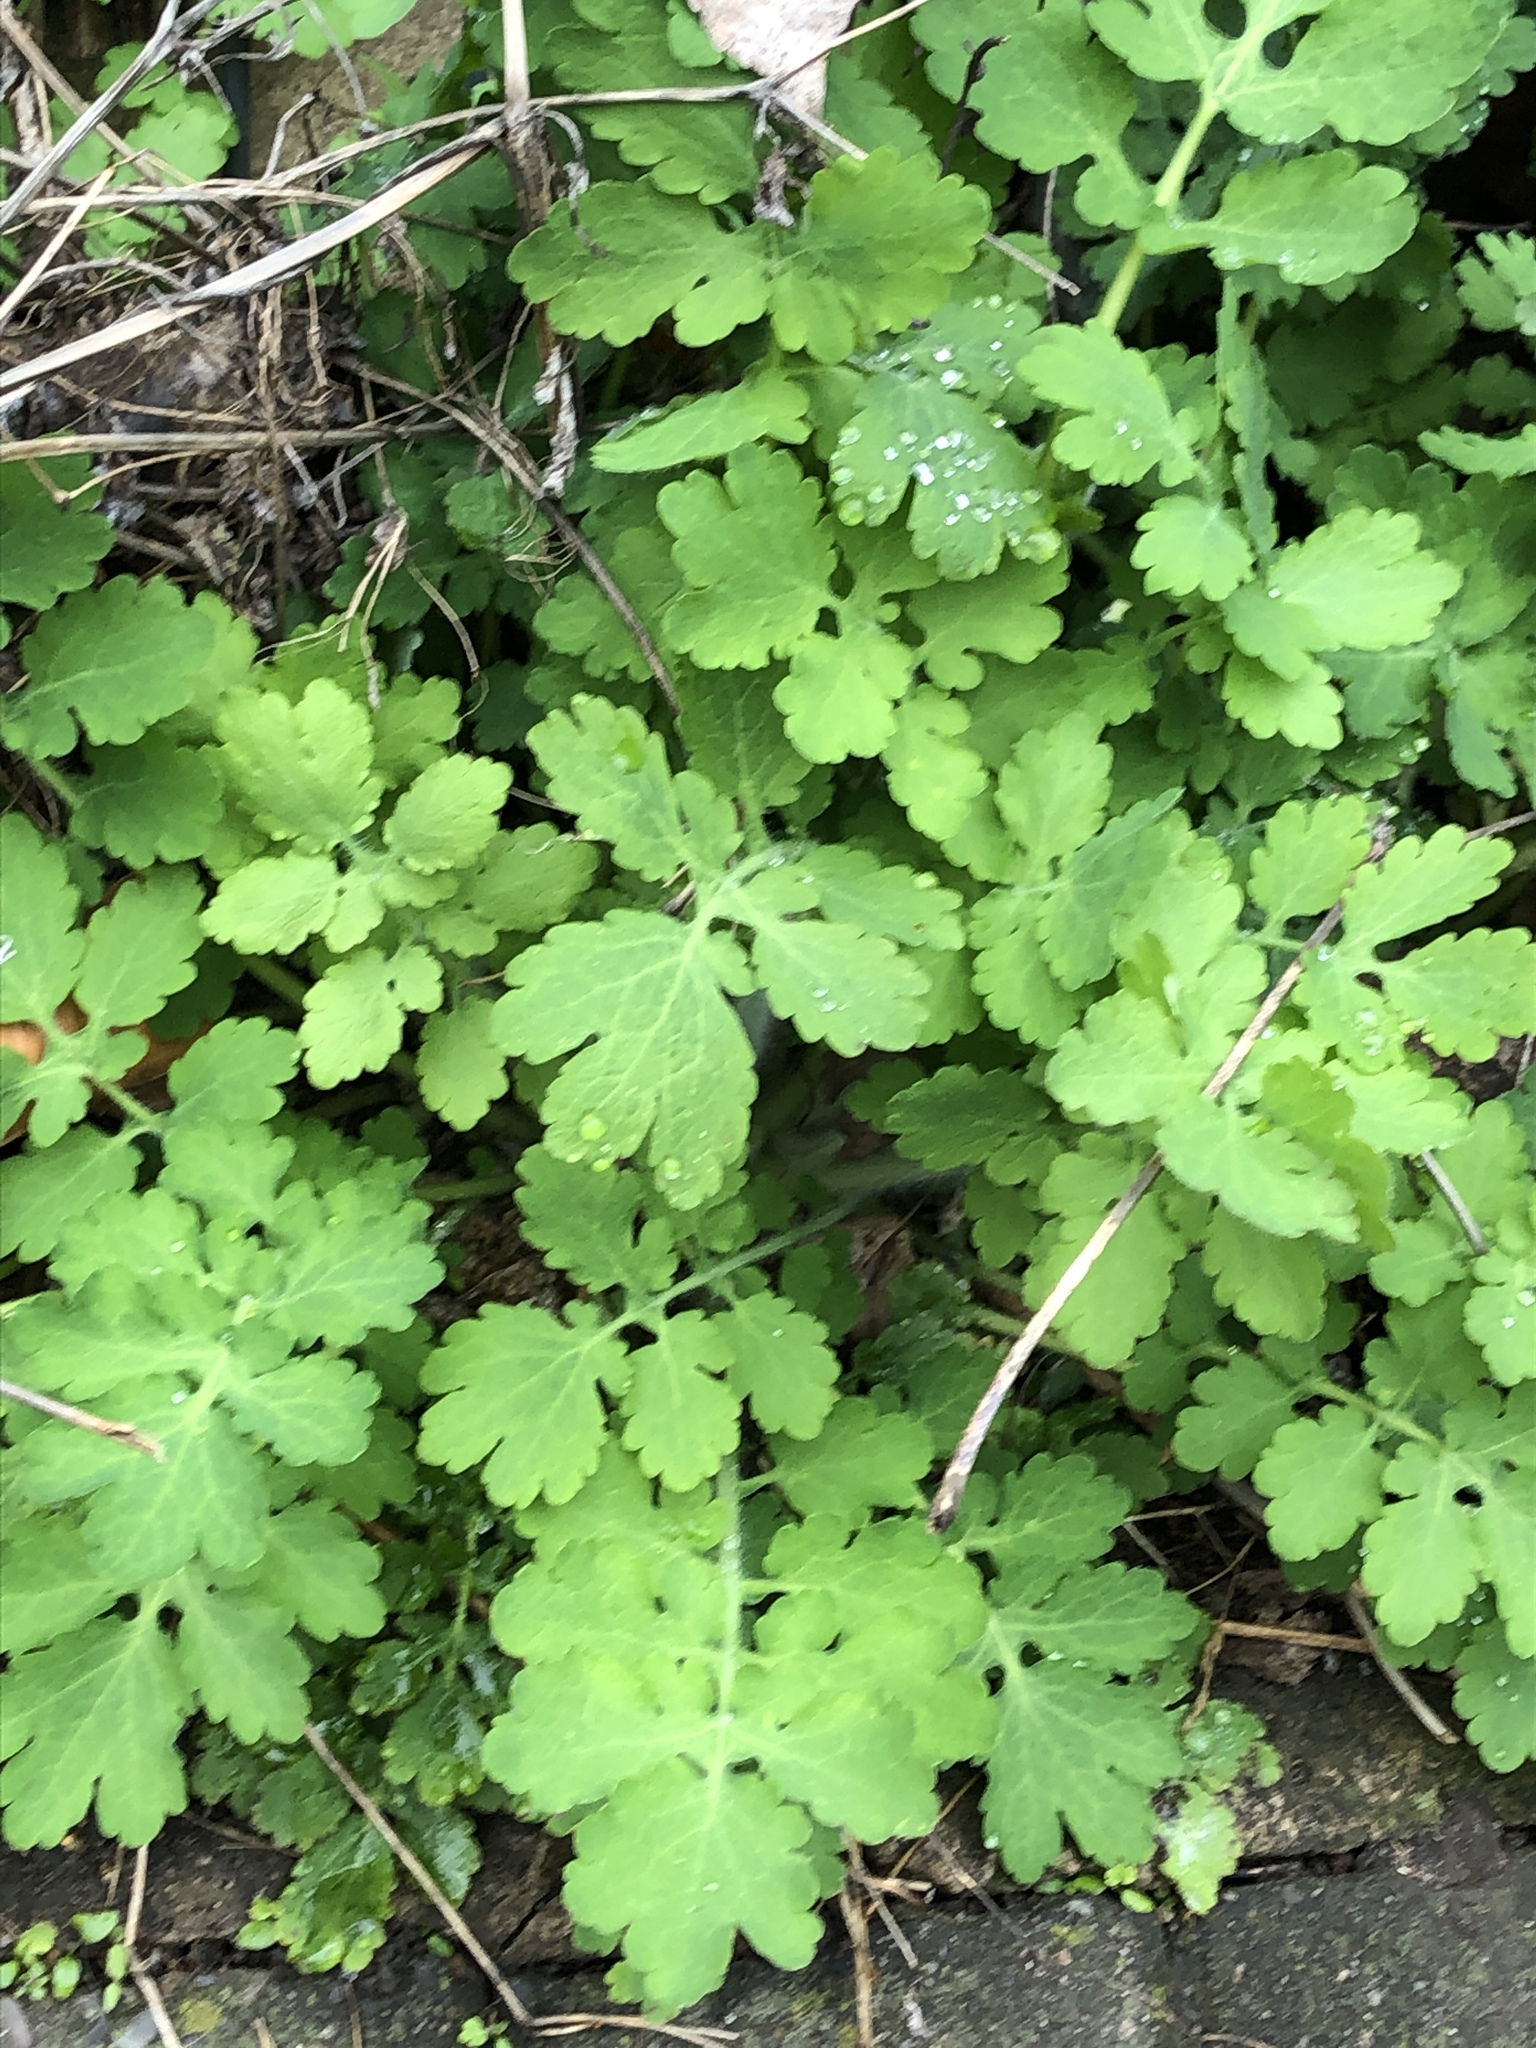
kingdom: Plantae
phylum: Tracheophyta
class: Magnoliopsida
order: Ranunculales
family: Papaveraceae
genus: Chelidonium
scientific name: Chelidonium majus
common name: Greater celandine
